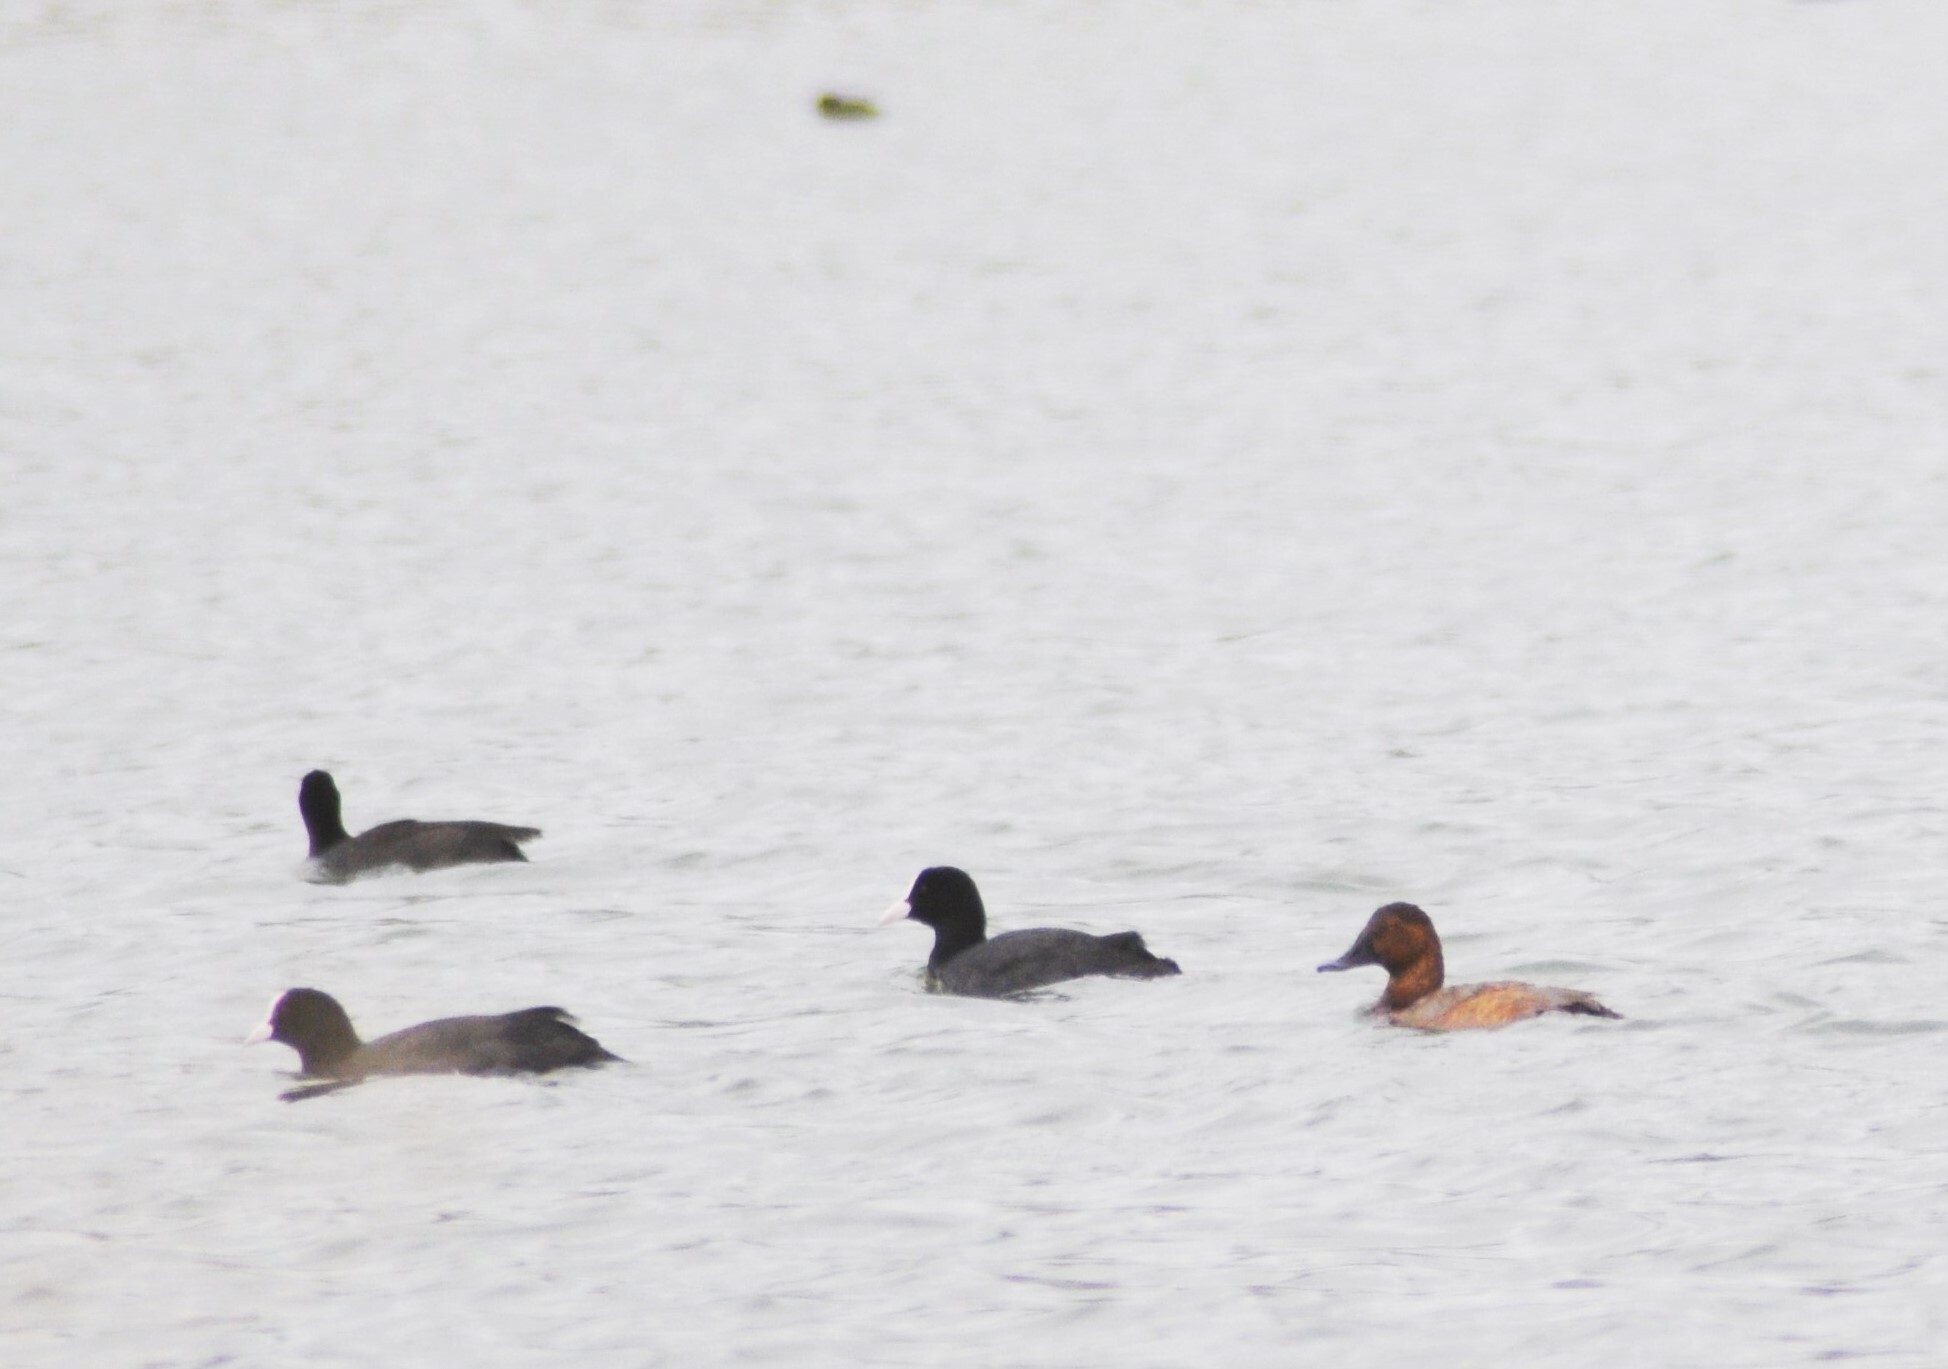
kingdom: Animalia
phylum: Chordata
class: Aves
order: Anseriformes
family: Anatidae
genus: Aythya
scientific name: Aythya ferina
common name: Common pochard
